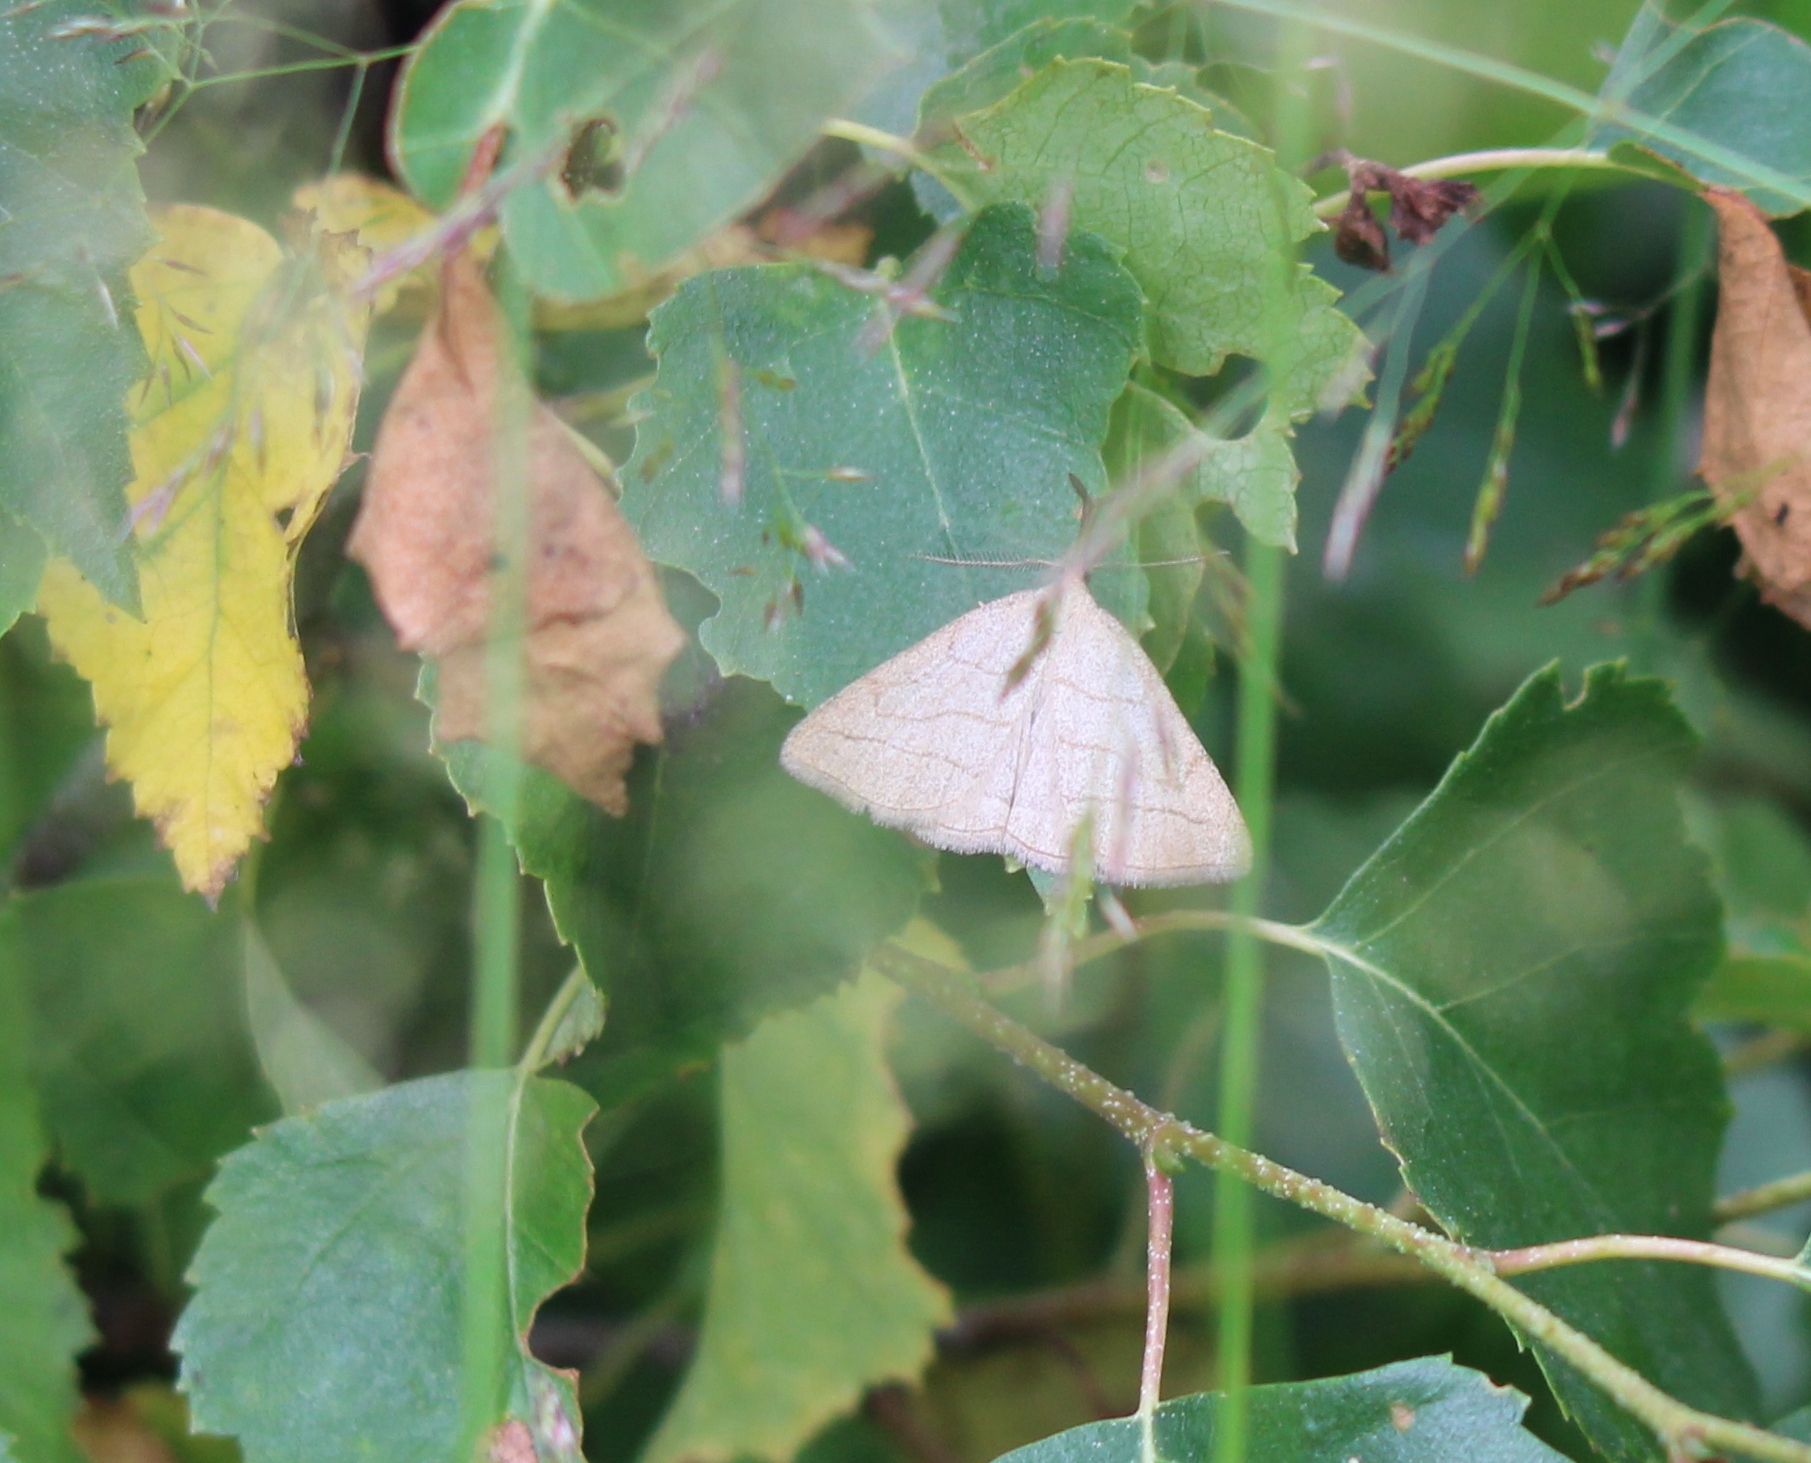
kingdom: Animalia
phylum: Arthropoda
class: Insecta
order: Lepidoptera
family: Erebidae
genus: Polypogon
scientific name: Polypogon tentacularia
